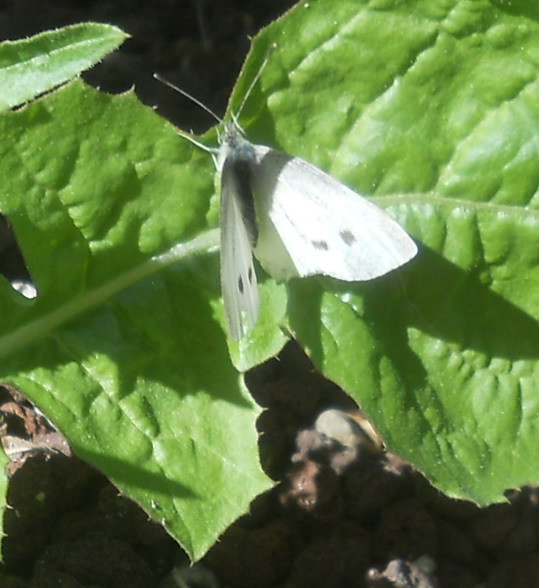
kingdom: Animalia
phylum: Arthropoda
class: Insecta
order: Lepidoptera
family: Pieridae
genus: Pieris
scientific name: Pieris rapae
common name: Small white
